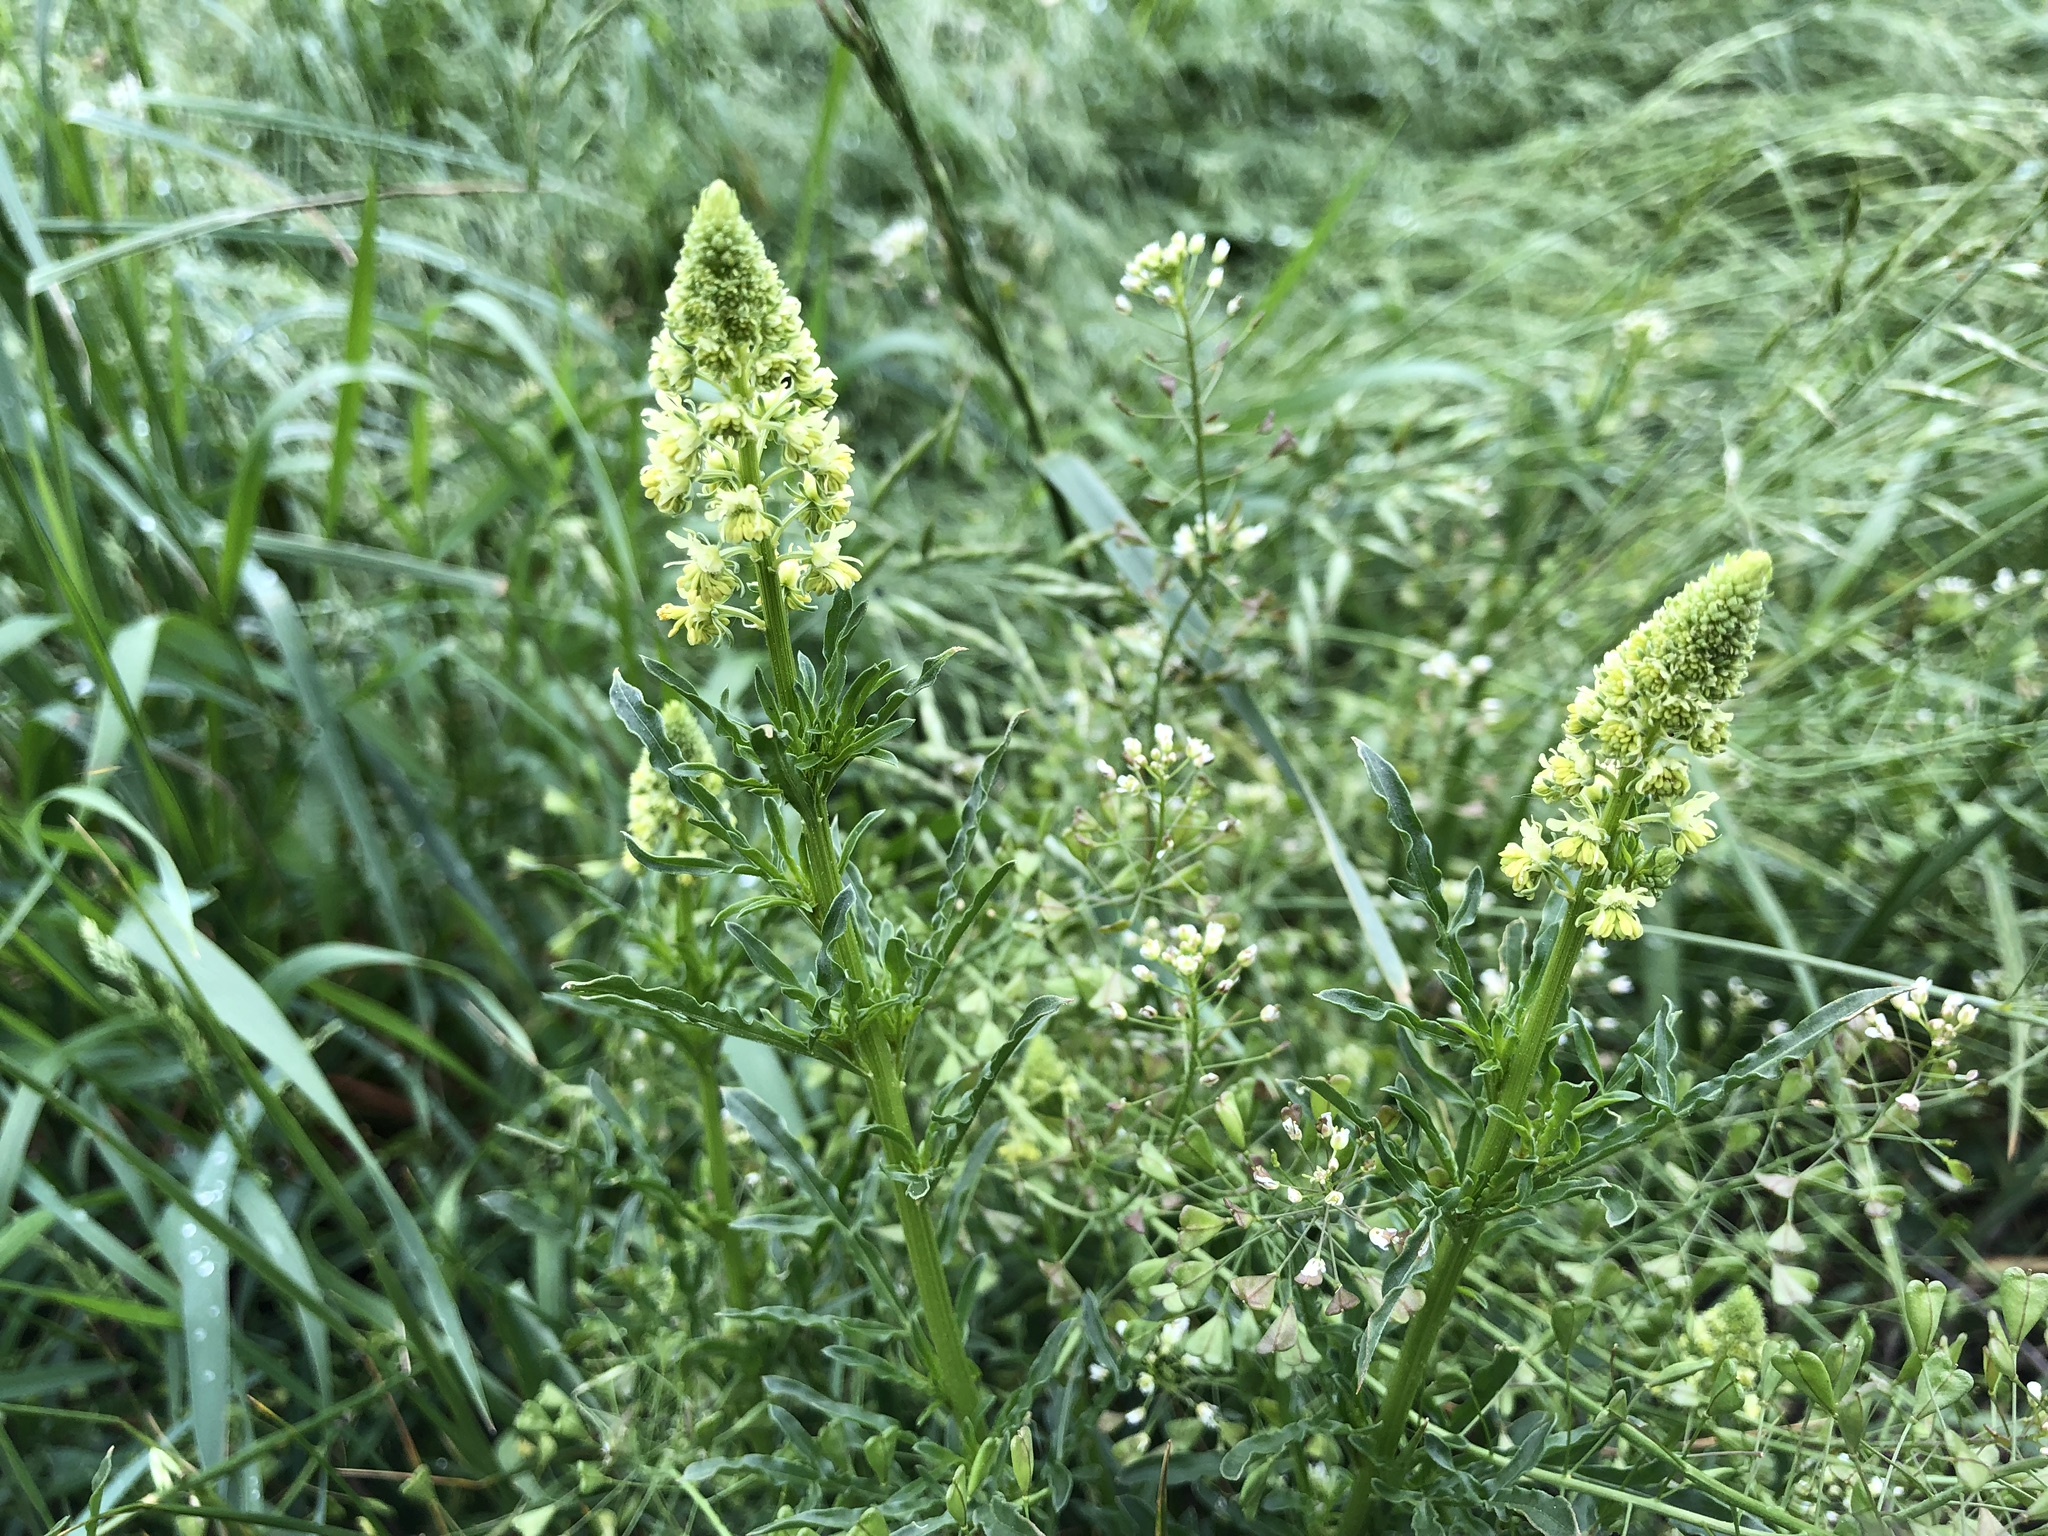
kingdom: Plantae
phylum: Tracheophyta
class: Magnoliopsida
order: Brassicales
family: Resedaceae
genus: Reseda
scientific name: Reseda lutea
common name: Wild mignonette
